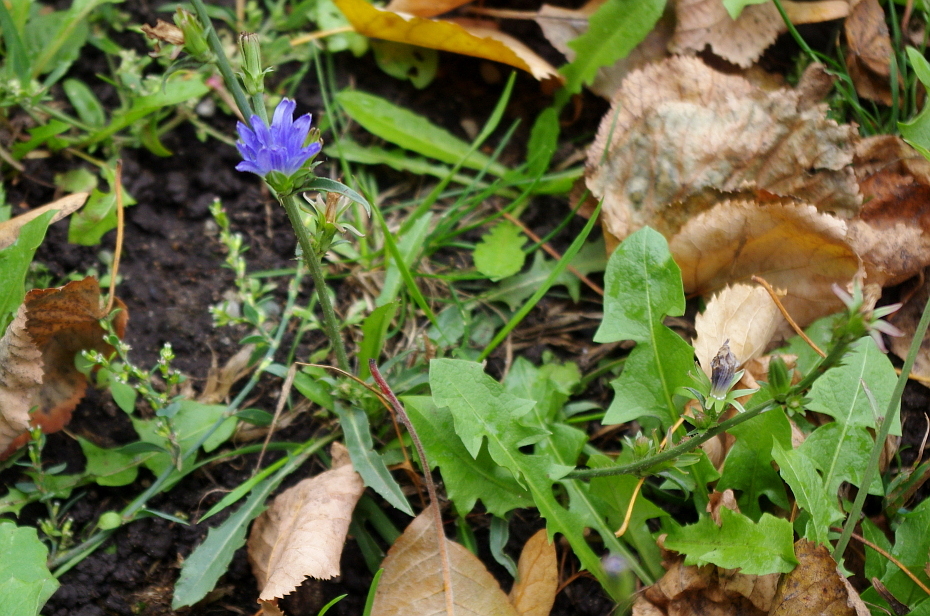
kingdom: Plantae
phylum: Tracheophyta
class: Magnoliopsida
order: Asterales
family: Asteraceae
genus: Cichorium
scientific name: Cichorium intybus
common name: Chicory
